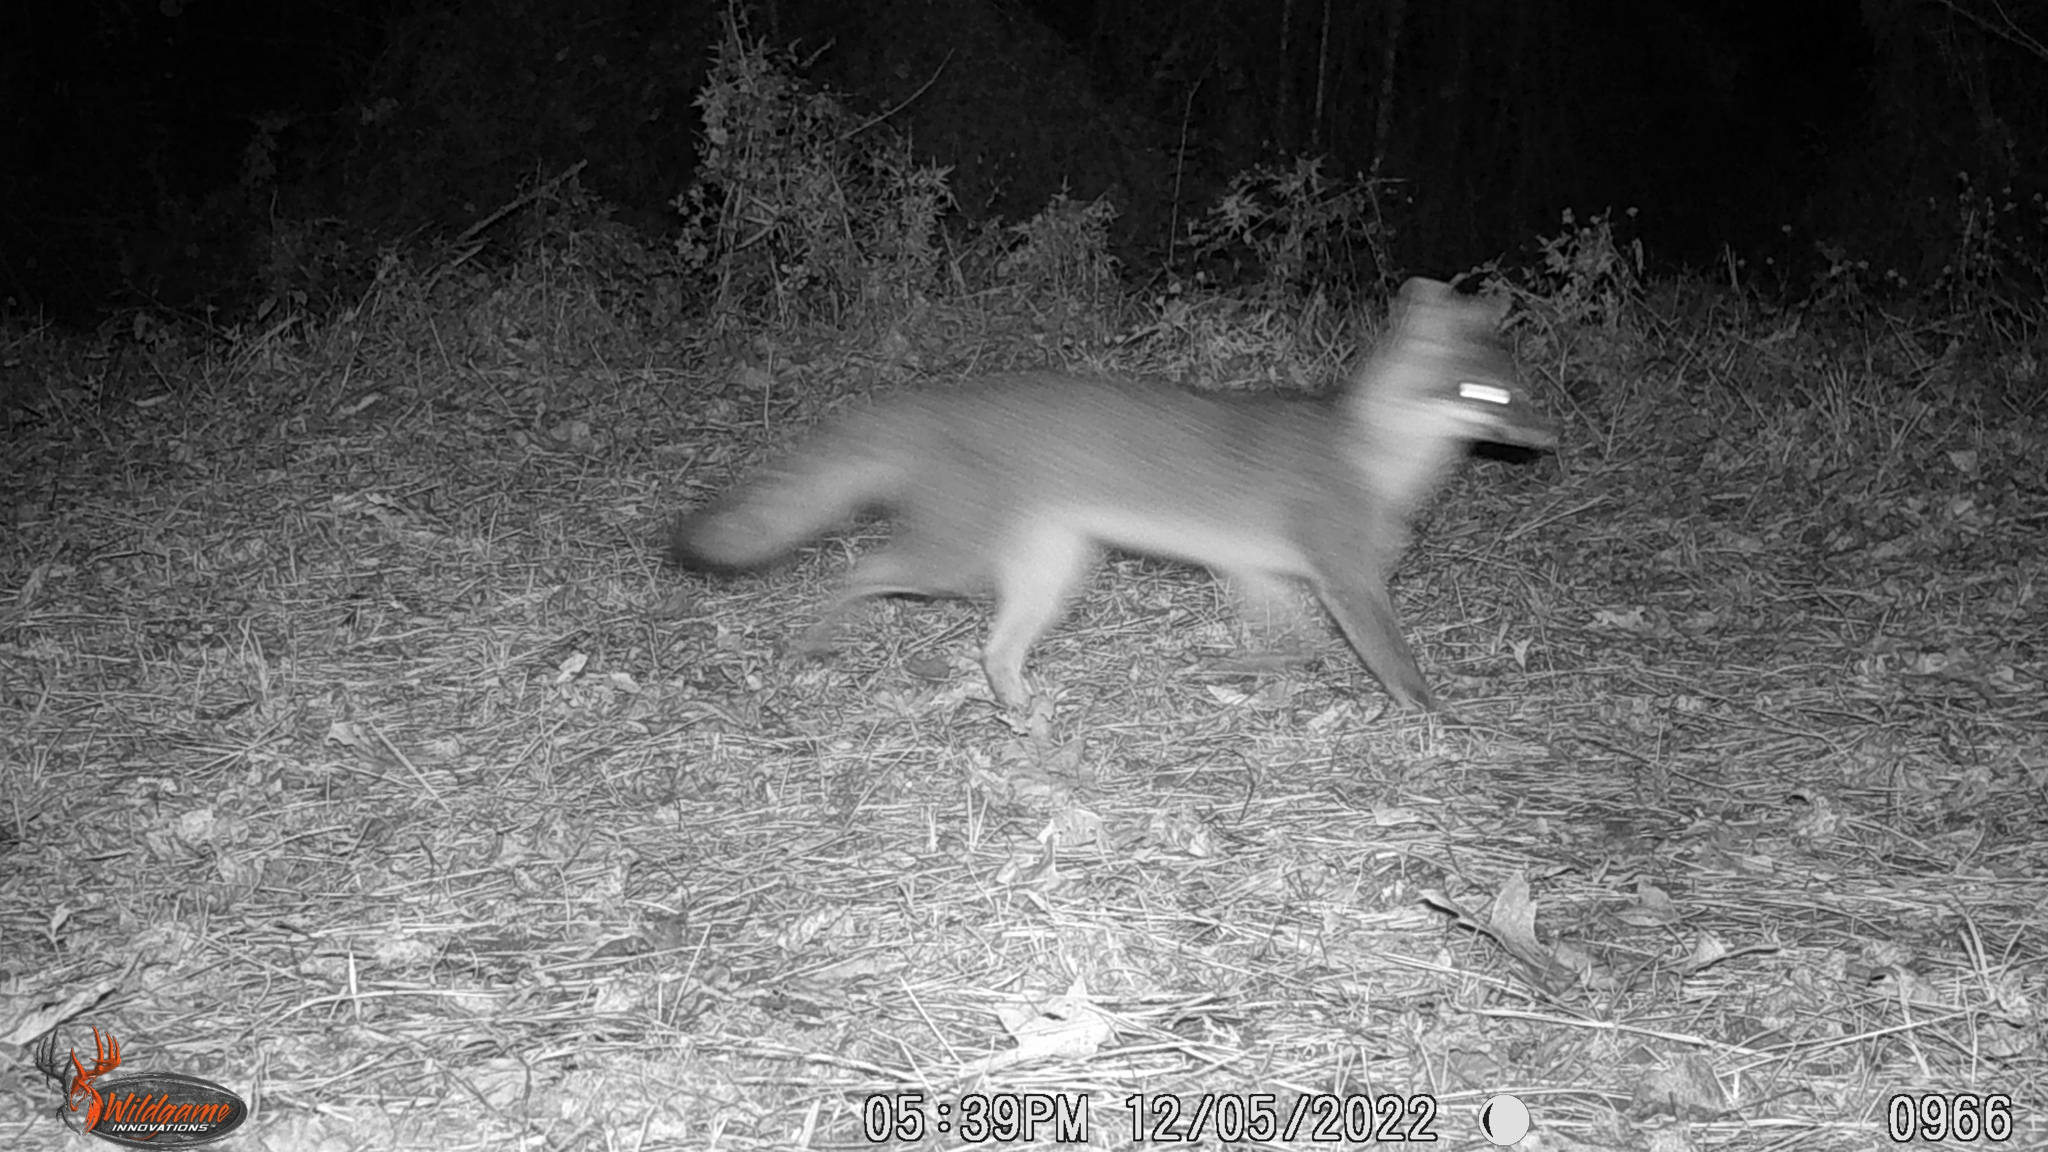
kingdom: Animalia
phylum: Chordata
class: Mammalia
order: Carnivora
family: Canidae
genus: Urocyon
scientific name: Urocyon cinereoargenteus
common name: Gray fox
